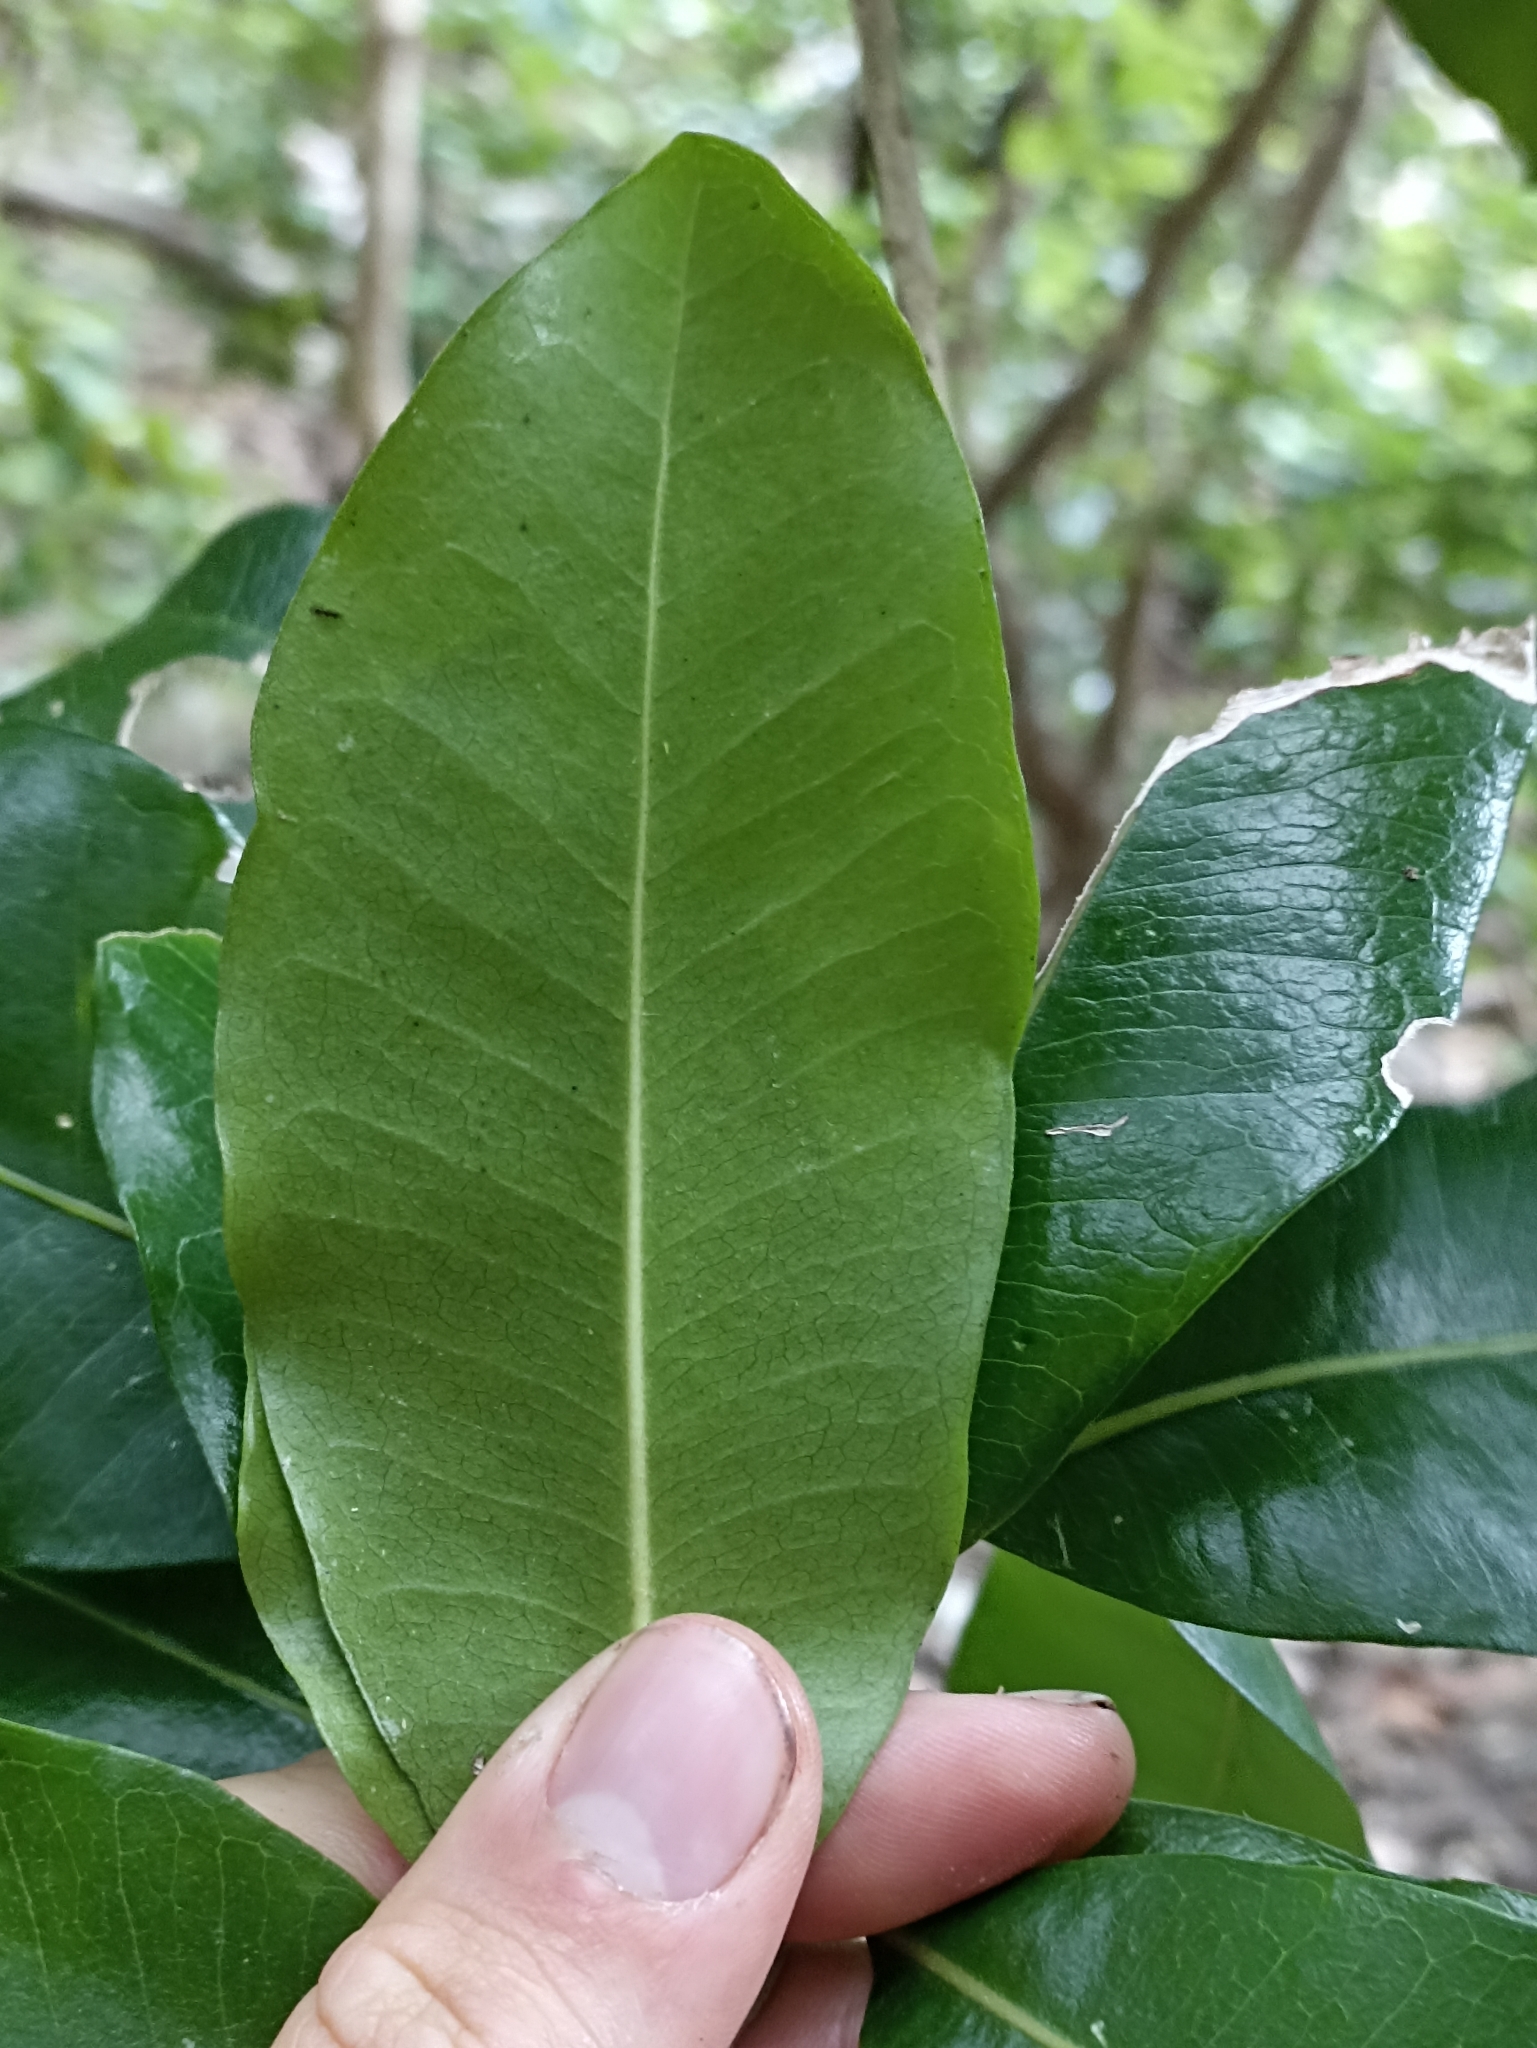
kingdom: Plantae
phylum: Tracheophyta
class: Magnoliopsida
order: Ericales
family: Sapotaceae
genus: Planchonella
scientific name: Planchonella costata
